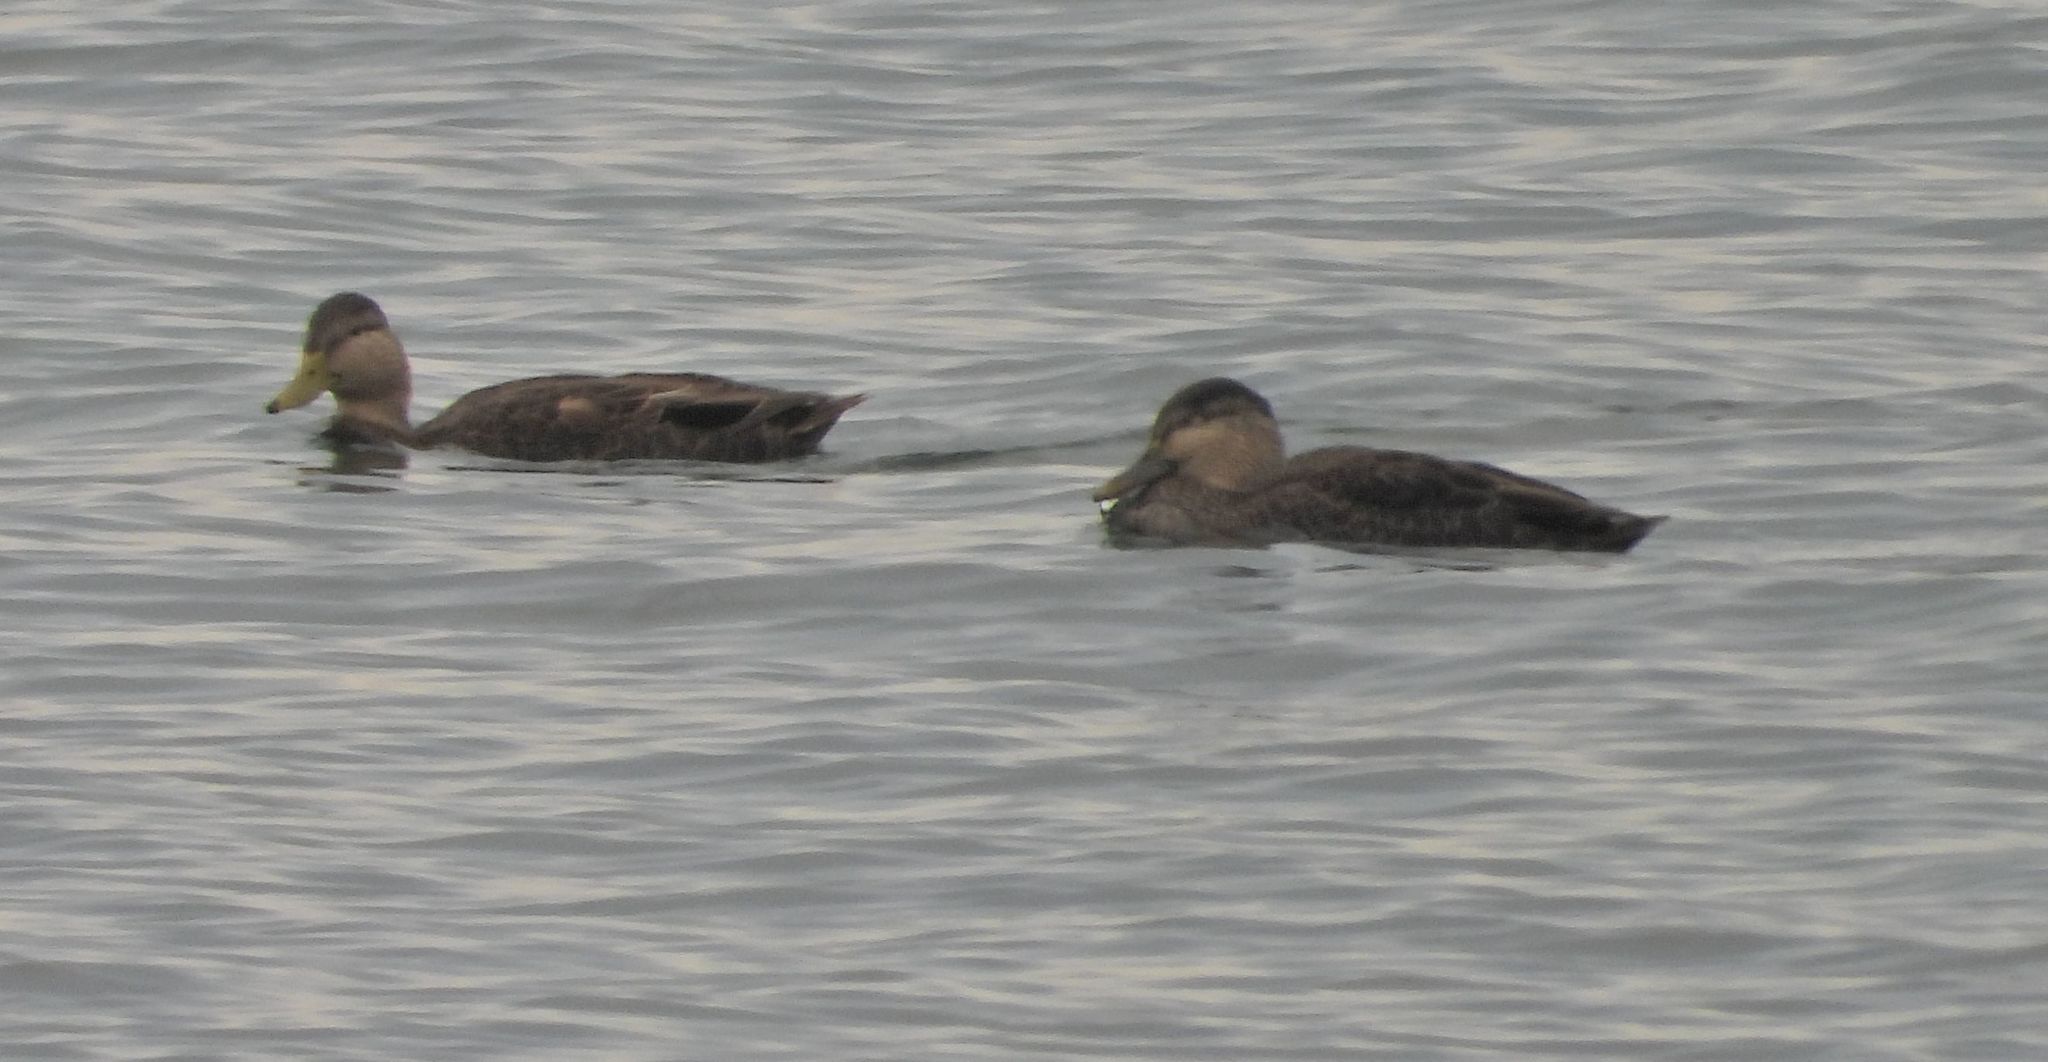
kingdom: Animalia
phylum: Chordata
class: Aves
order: Anseriformes
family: Anatidae
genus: Anas
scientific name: Anas rubripes
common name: American black duck
